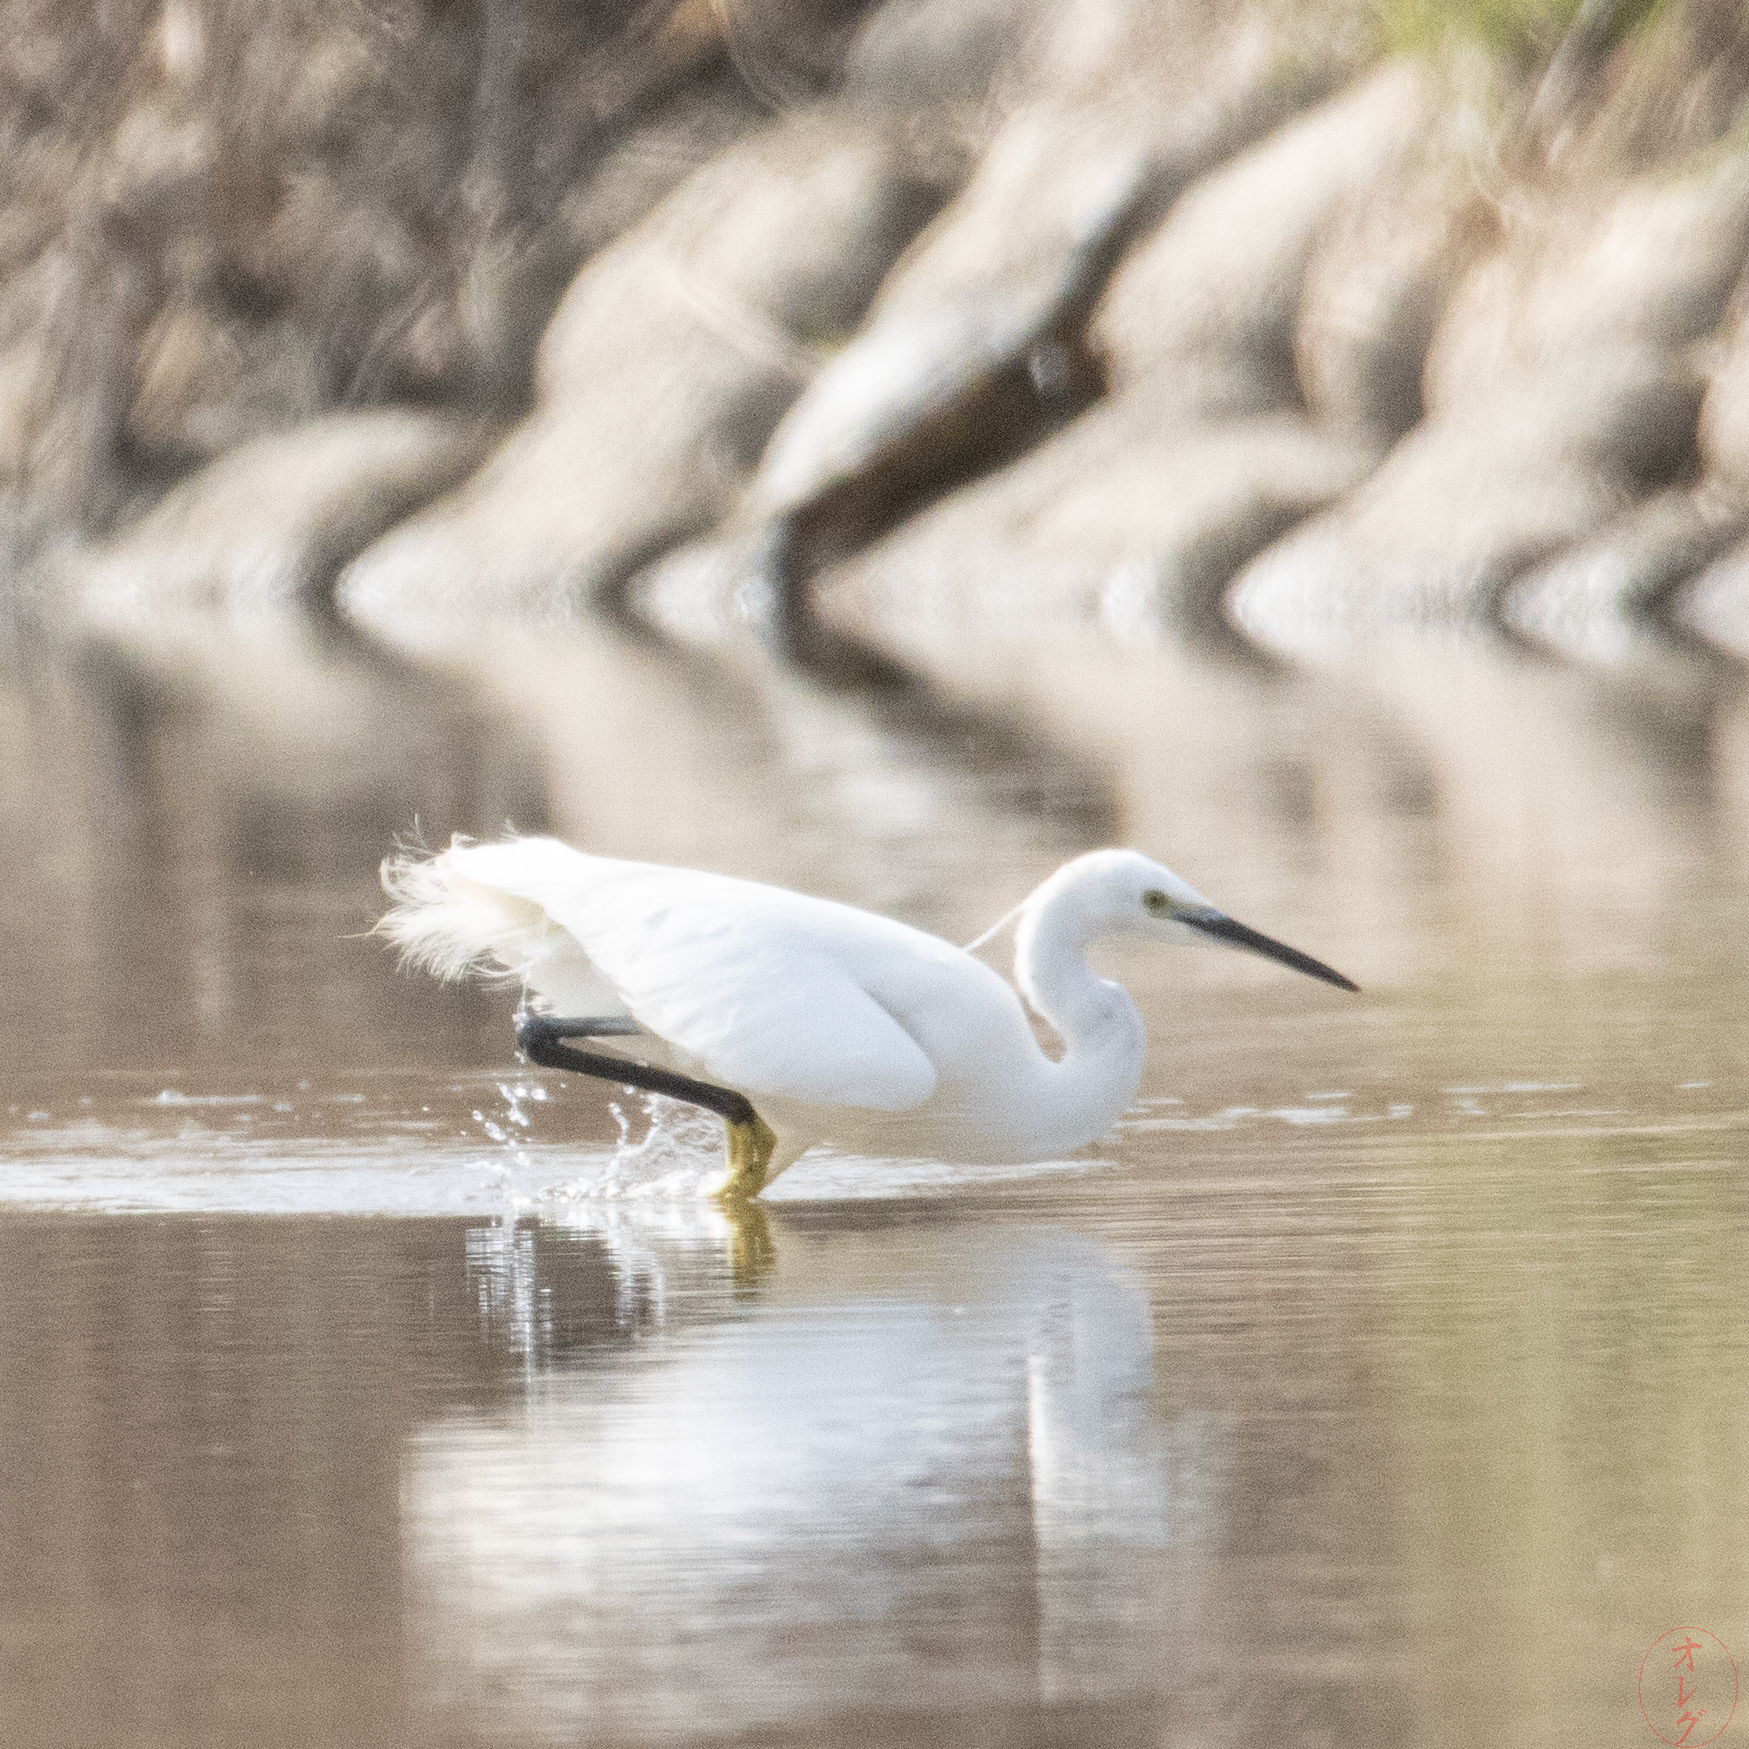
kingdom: Animalia
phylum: Chordata
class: Aves
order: Pelecaniformes
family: Ardeidae
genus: Egretta
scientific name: Egretta garzetta
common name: Little egret
